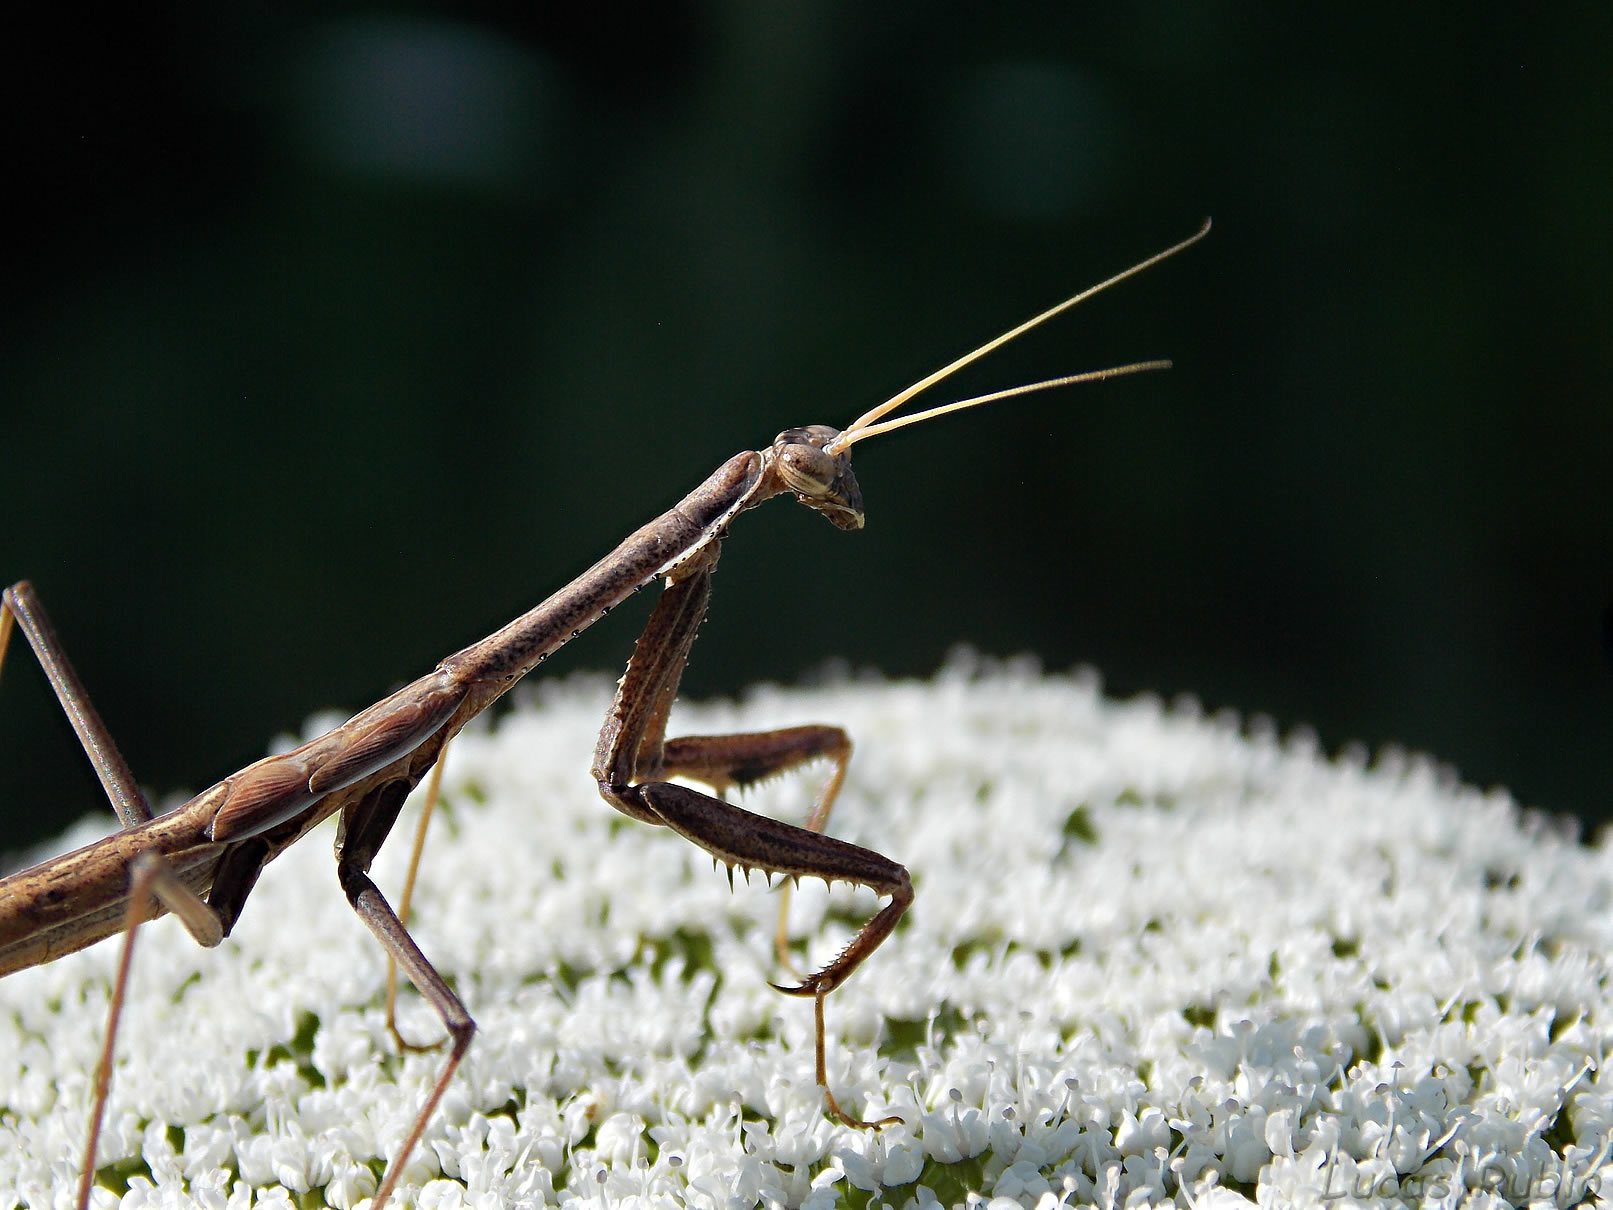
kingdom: Animalia
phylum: Arthropoda
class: Insecta
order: Mantodea
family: Coptopterygidae
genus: Coptopteryx
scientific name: Coptopteryx gayi
